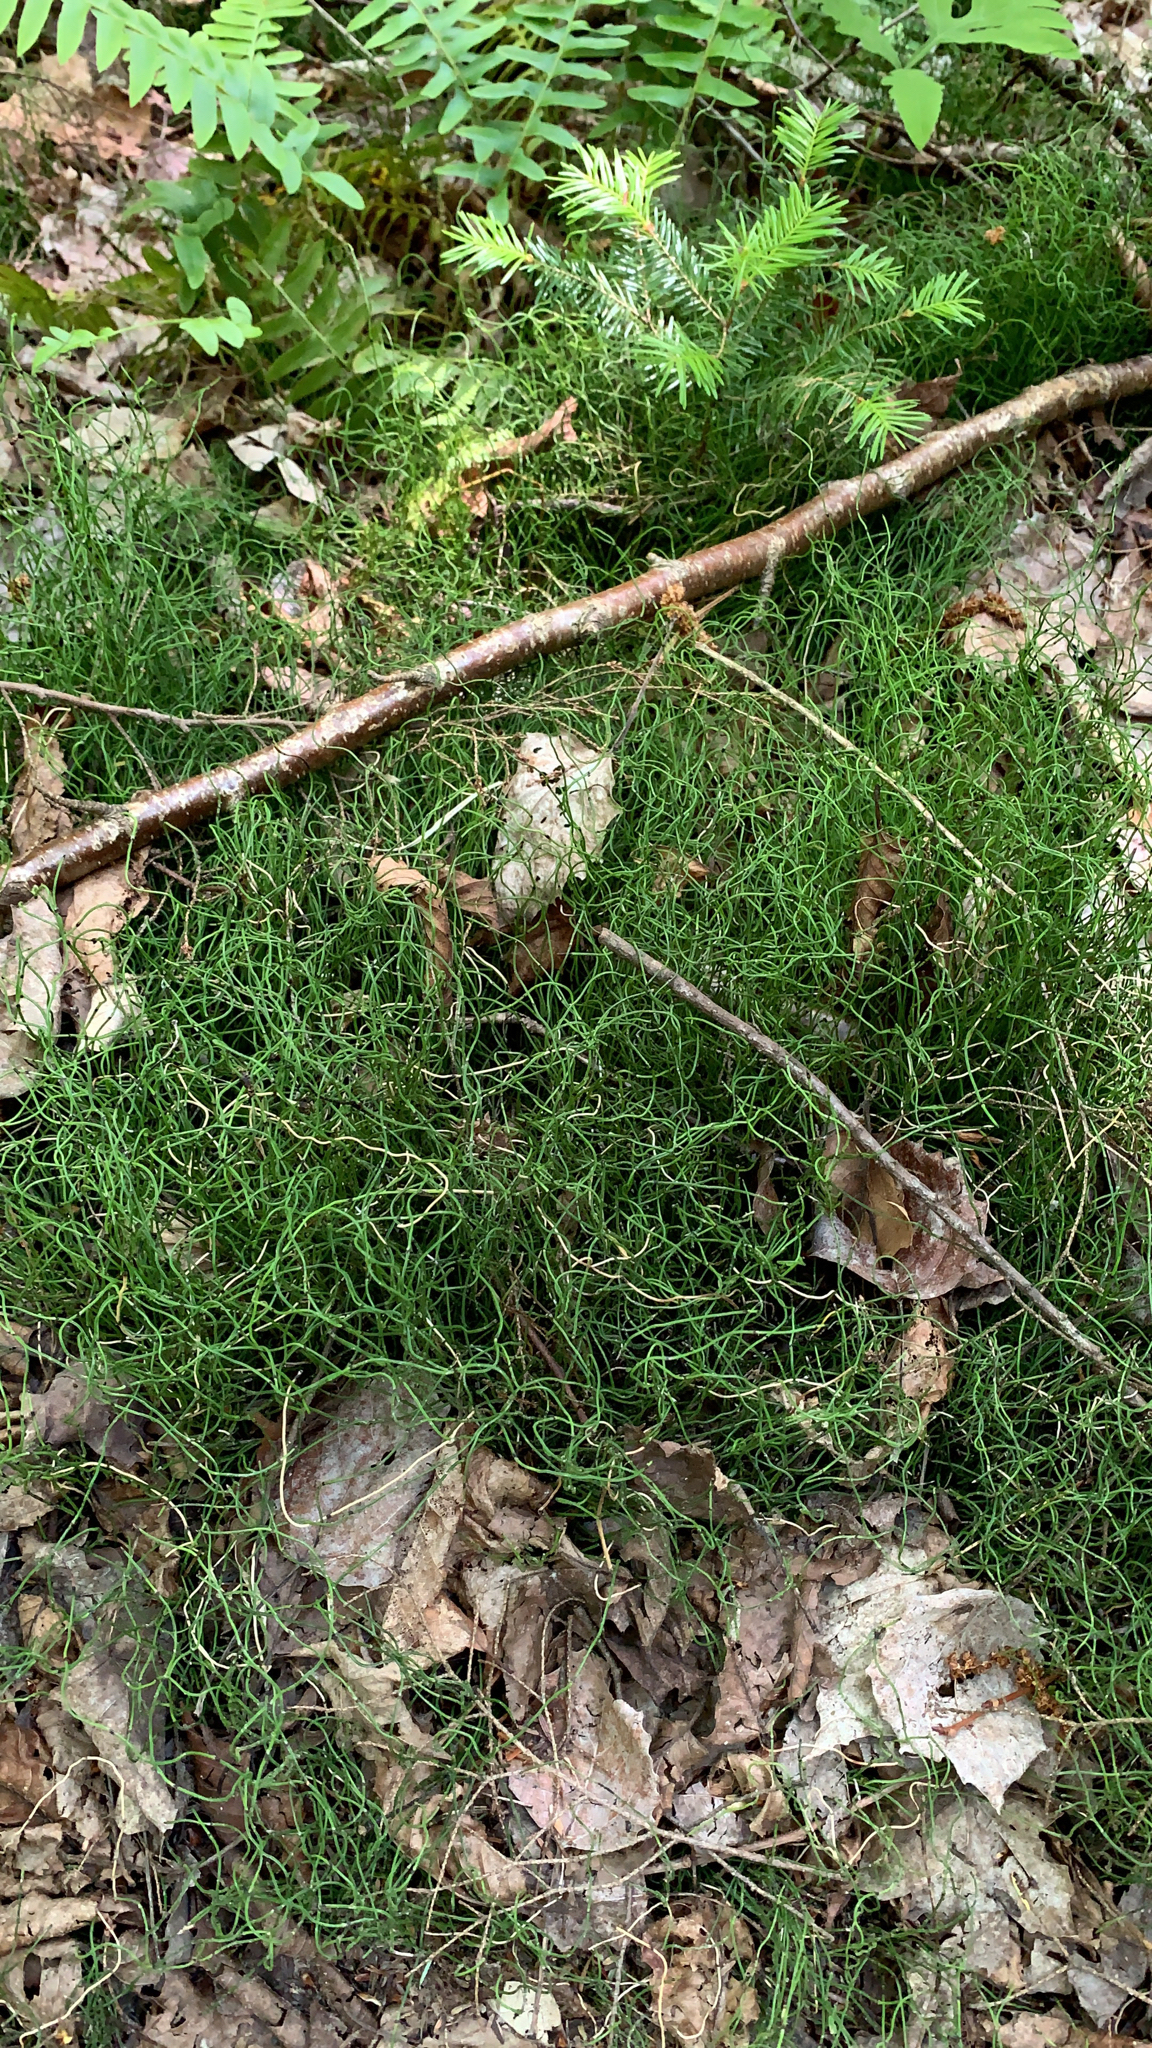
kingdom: Plantae
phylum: Tracheophyta
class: Polypodiopsida
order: Equisetales
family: Equisetaceae
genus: Equisetum
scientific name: Equisetum scirpoides
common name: Delicate horsetail
